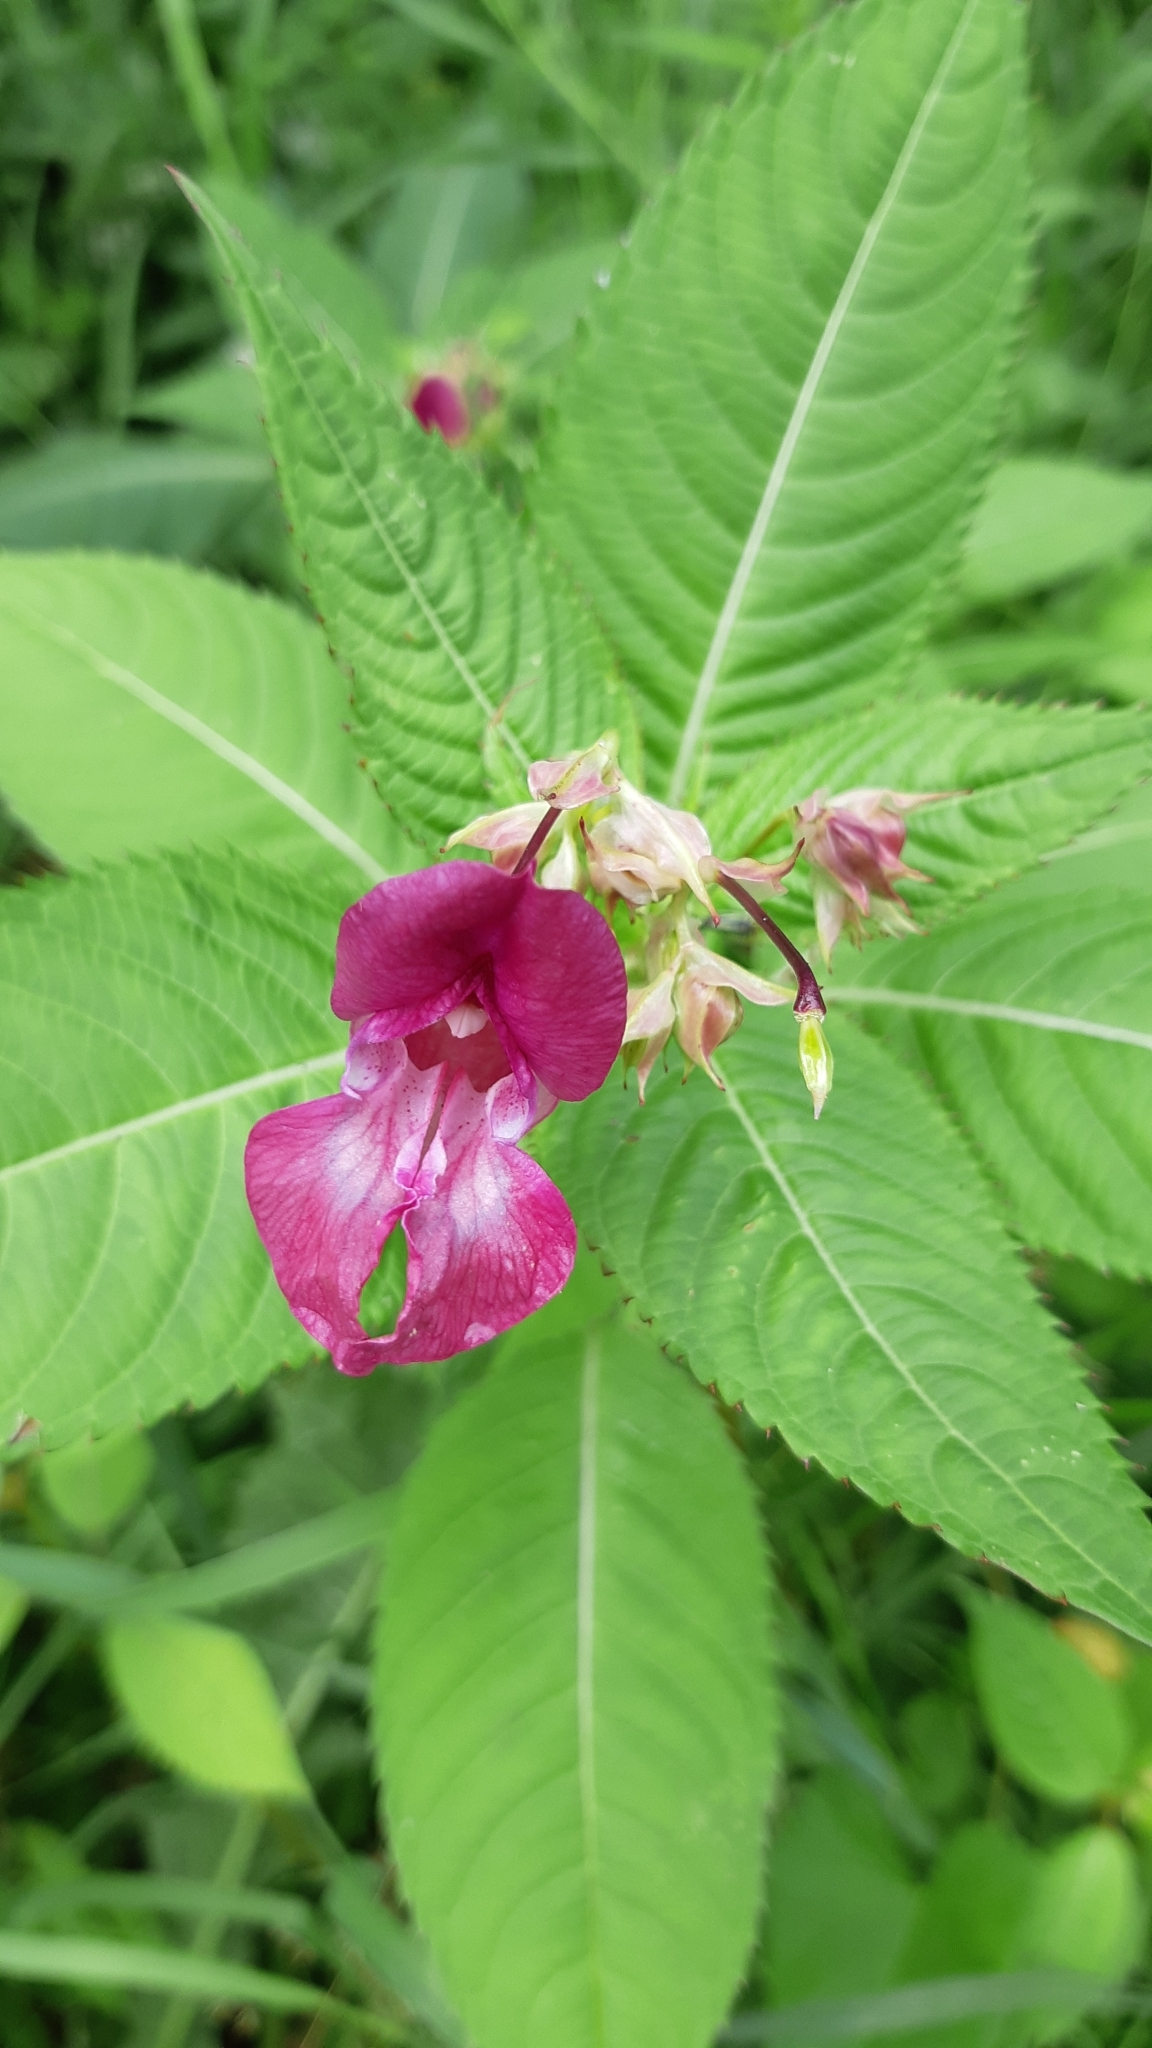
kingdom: Plantae
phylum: Tracheophyta
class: Magnoliopsida
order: Ericales
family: Balsaminaceae
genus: Impatiens
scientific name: Impatiens glandulifera
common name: Himalayan balsam
